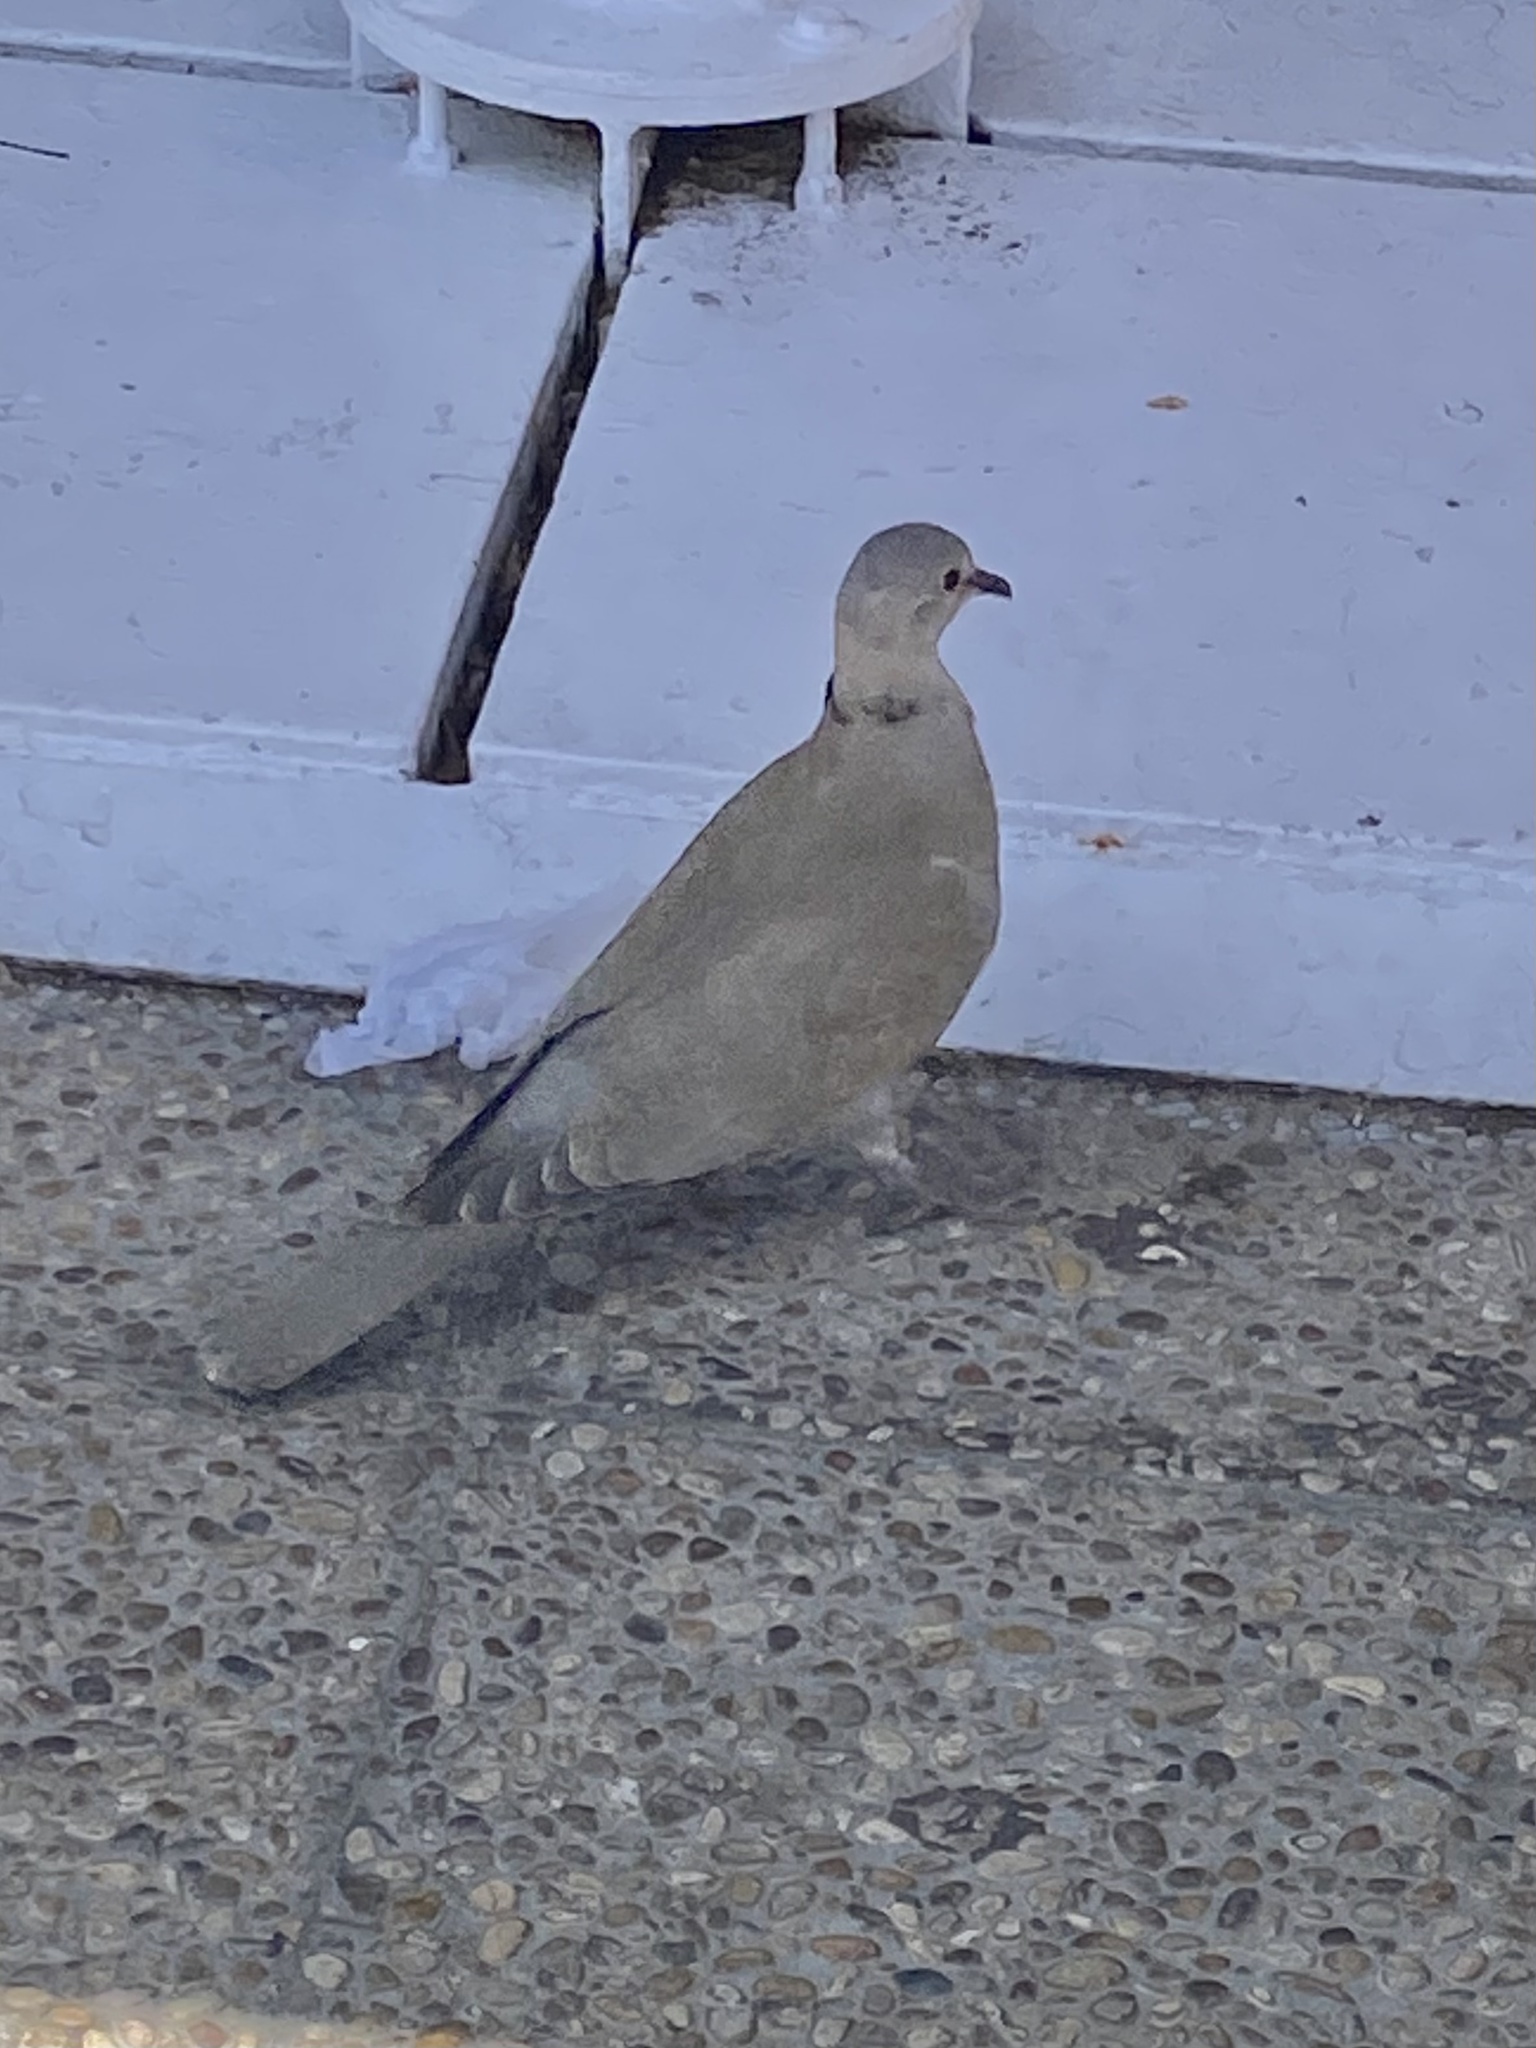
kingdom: Animalia
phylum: Chordata
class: Aves
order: Columbiformes
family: Columbidae
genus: Streptopelia
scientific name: Streptopelia decaocto
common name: Eurasian collared dove
